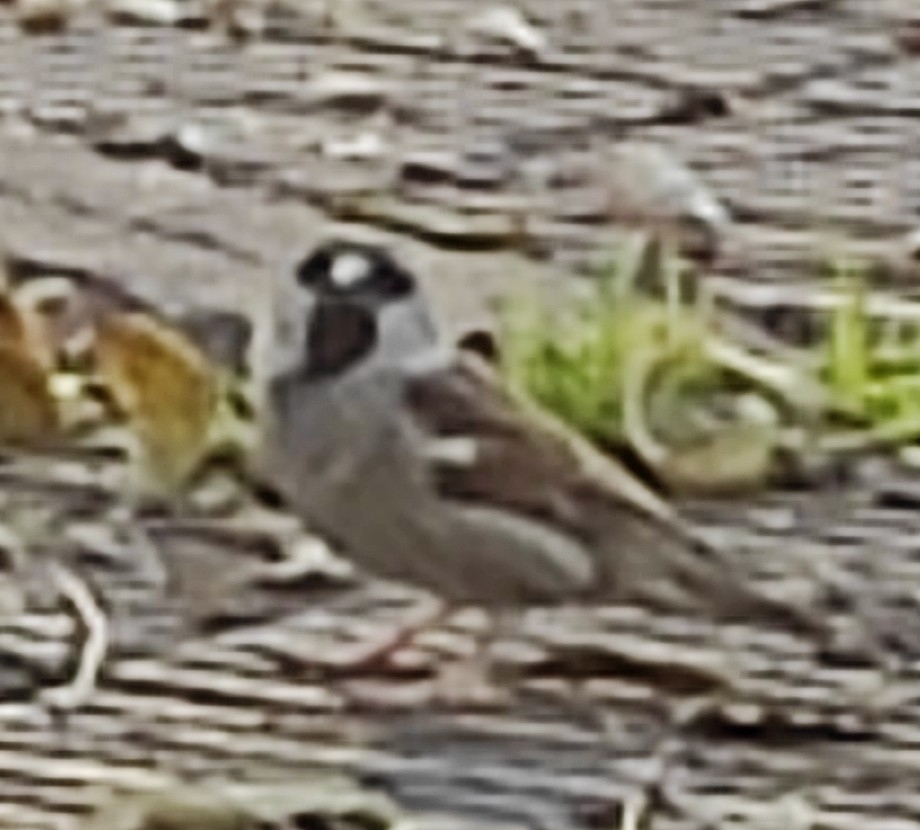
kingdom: Animalia
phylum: Chordata
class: Aves
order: Passeriformes
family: Passeridae
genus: Passer
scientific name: Passer domesticus
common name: House sparrow
